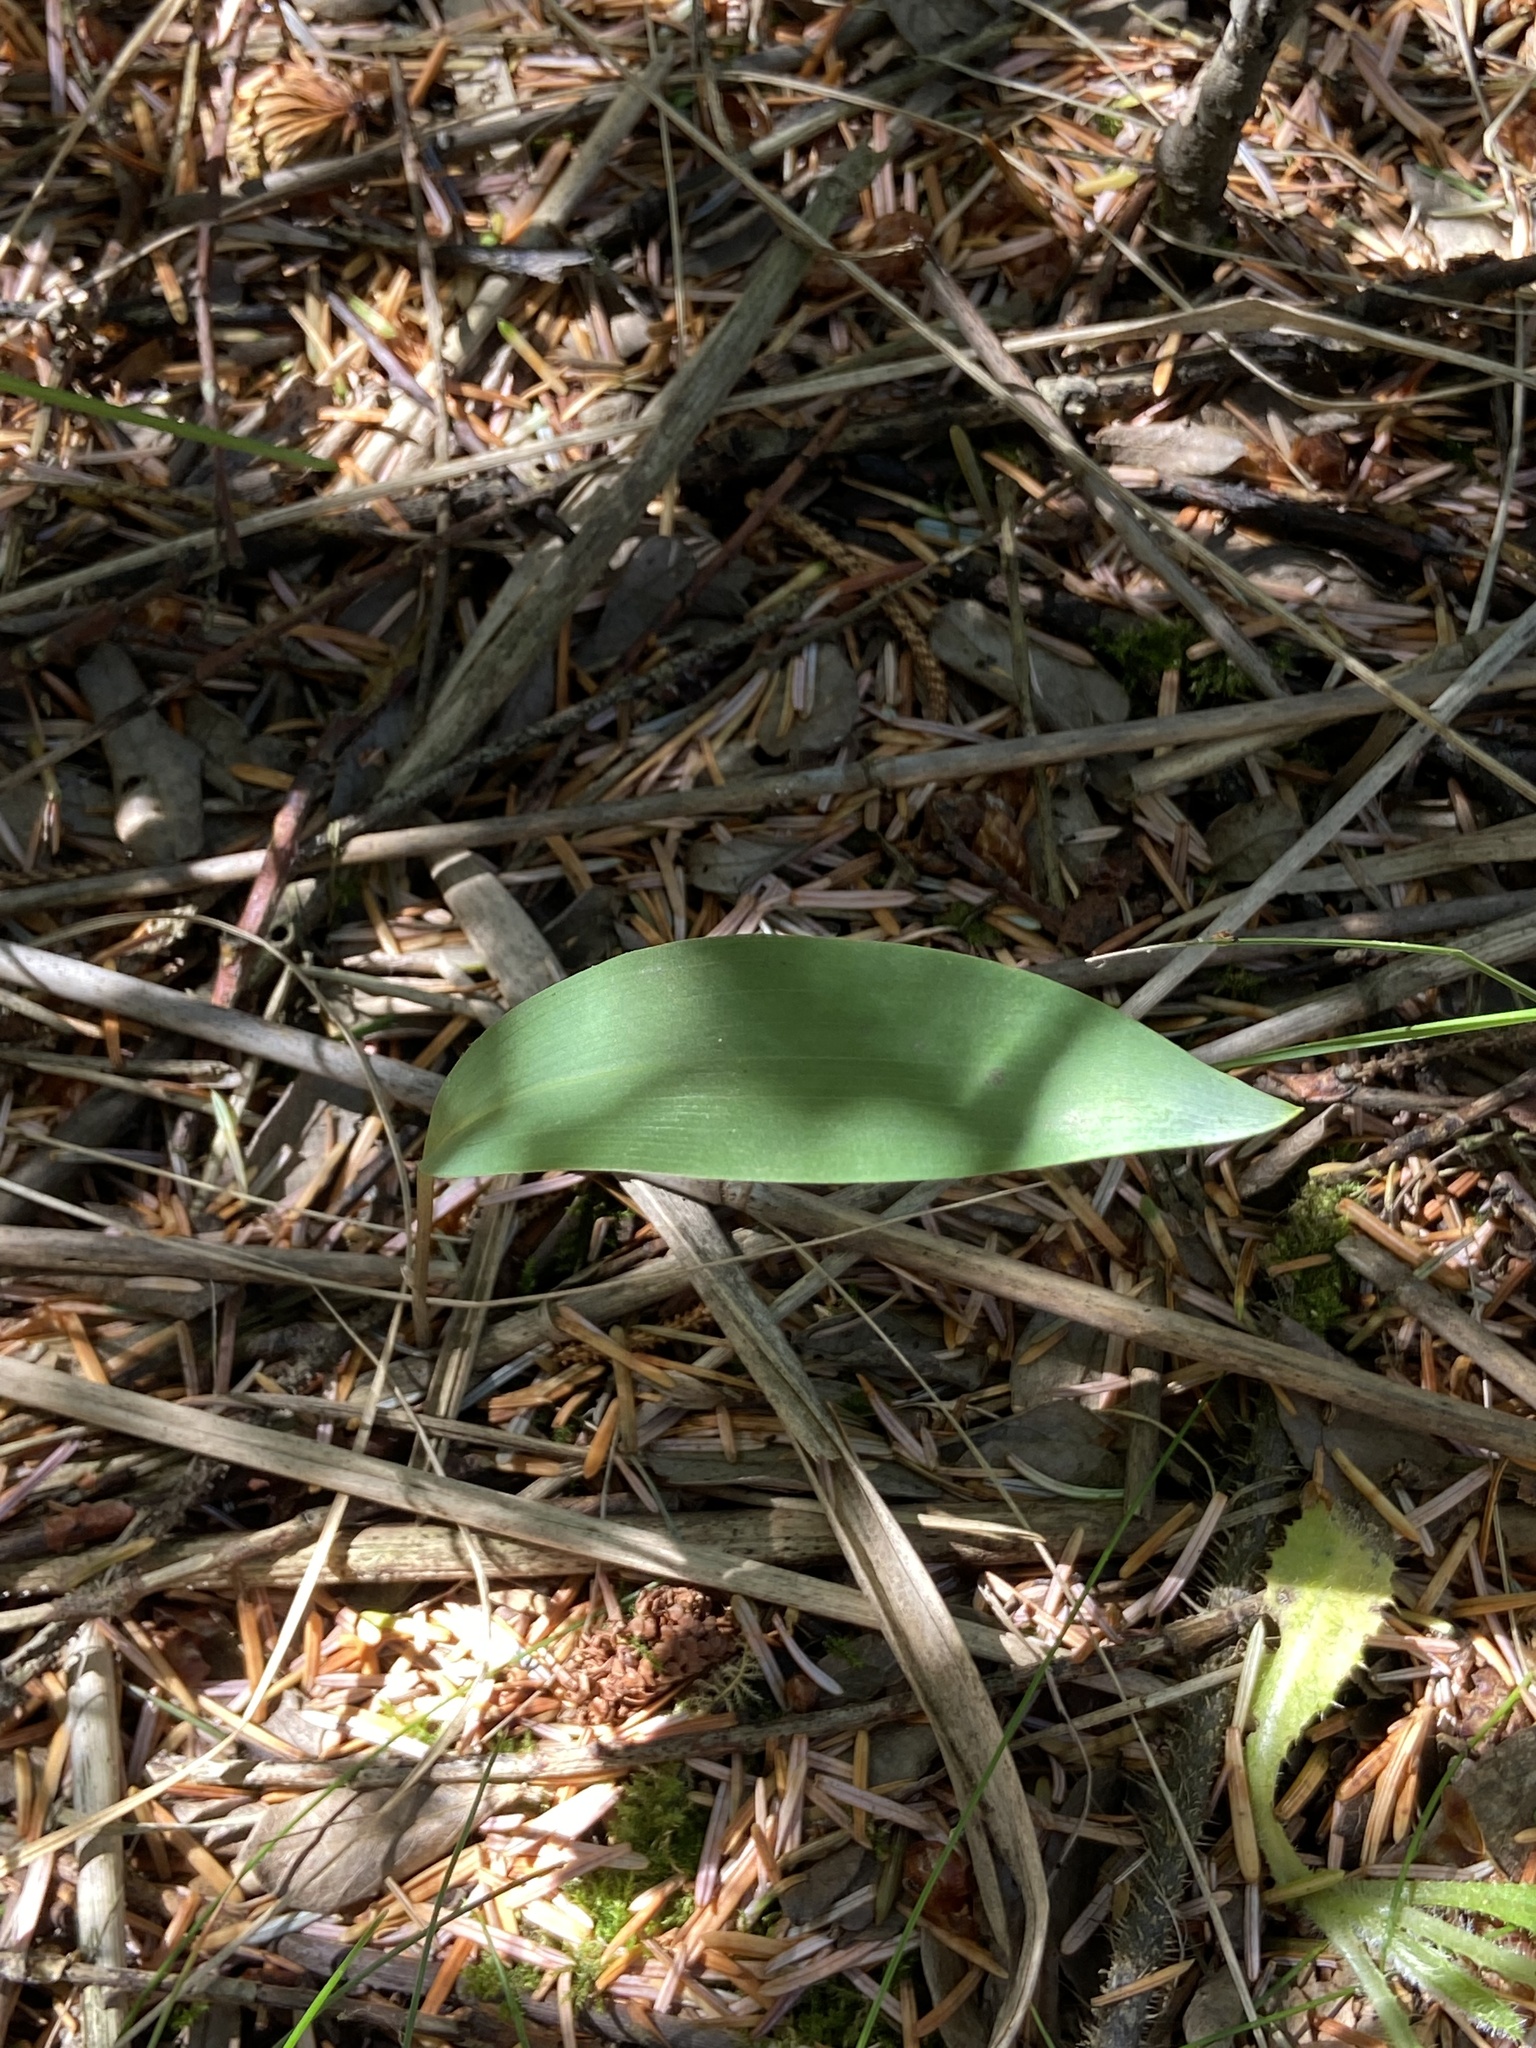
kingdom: Plantae
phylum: Tracheophyta
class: Liliopsida
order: Asparagales
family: Asparagaceae
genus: Convallaria
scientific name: Convallaria majalis
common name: Lily-of-the-valley
